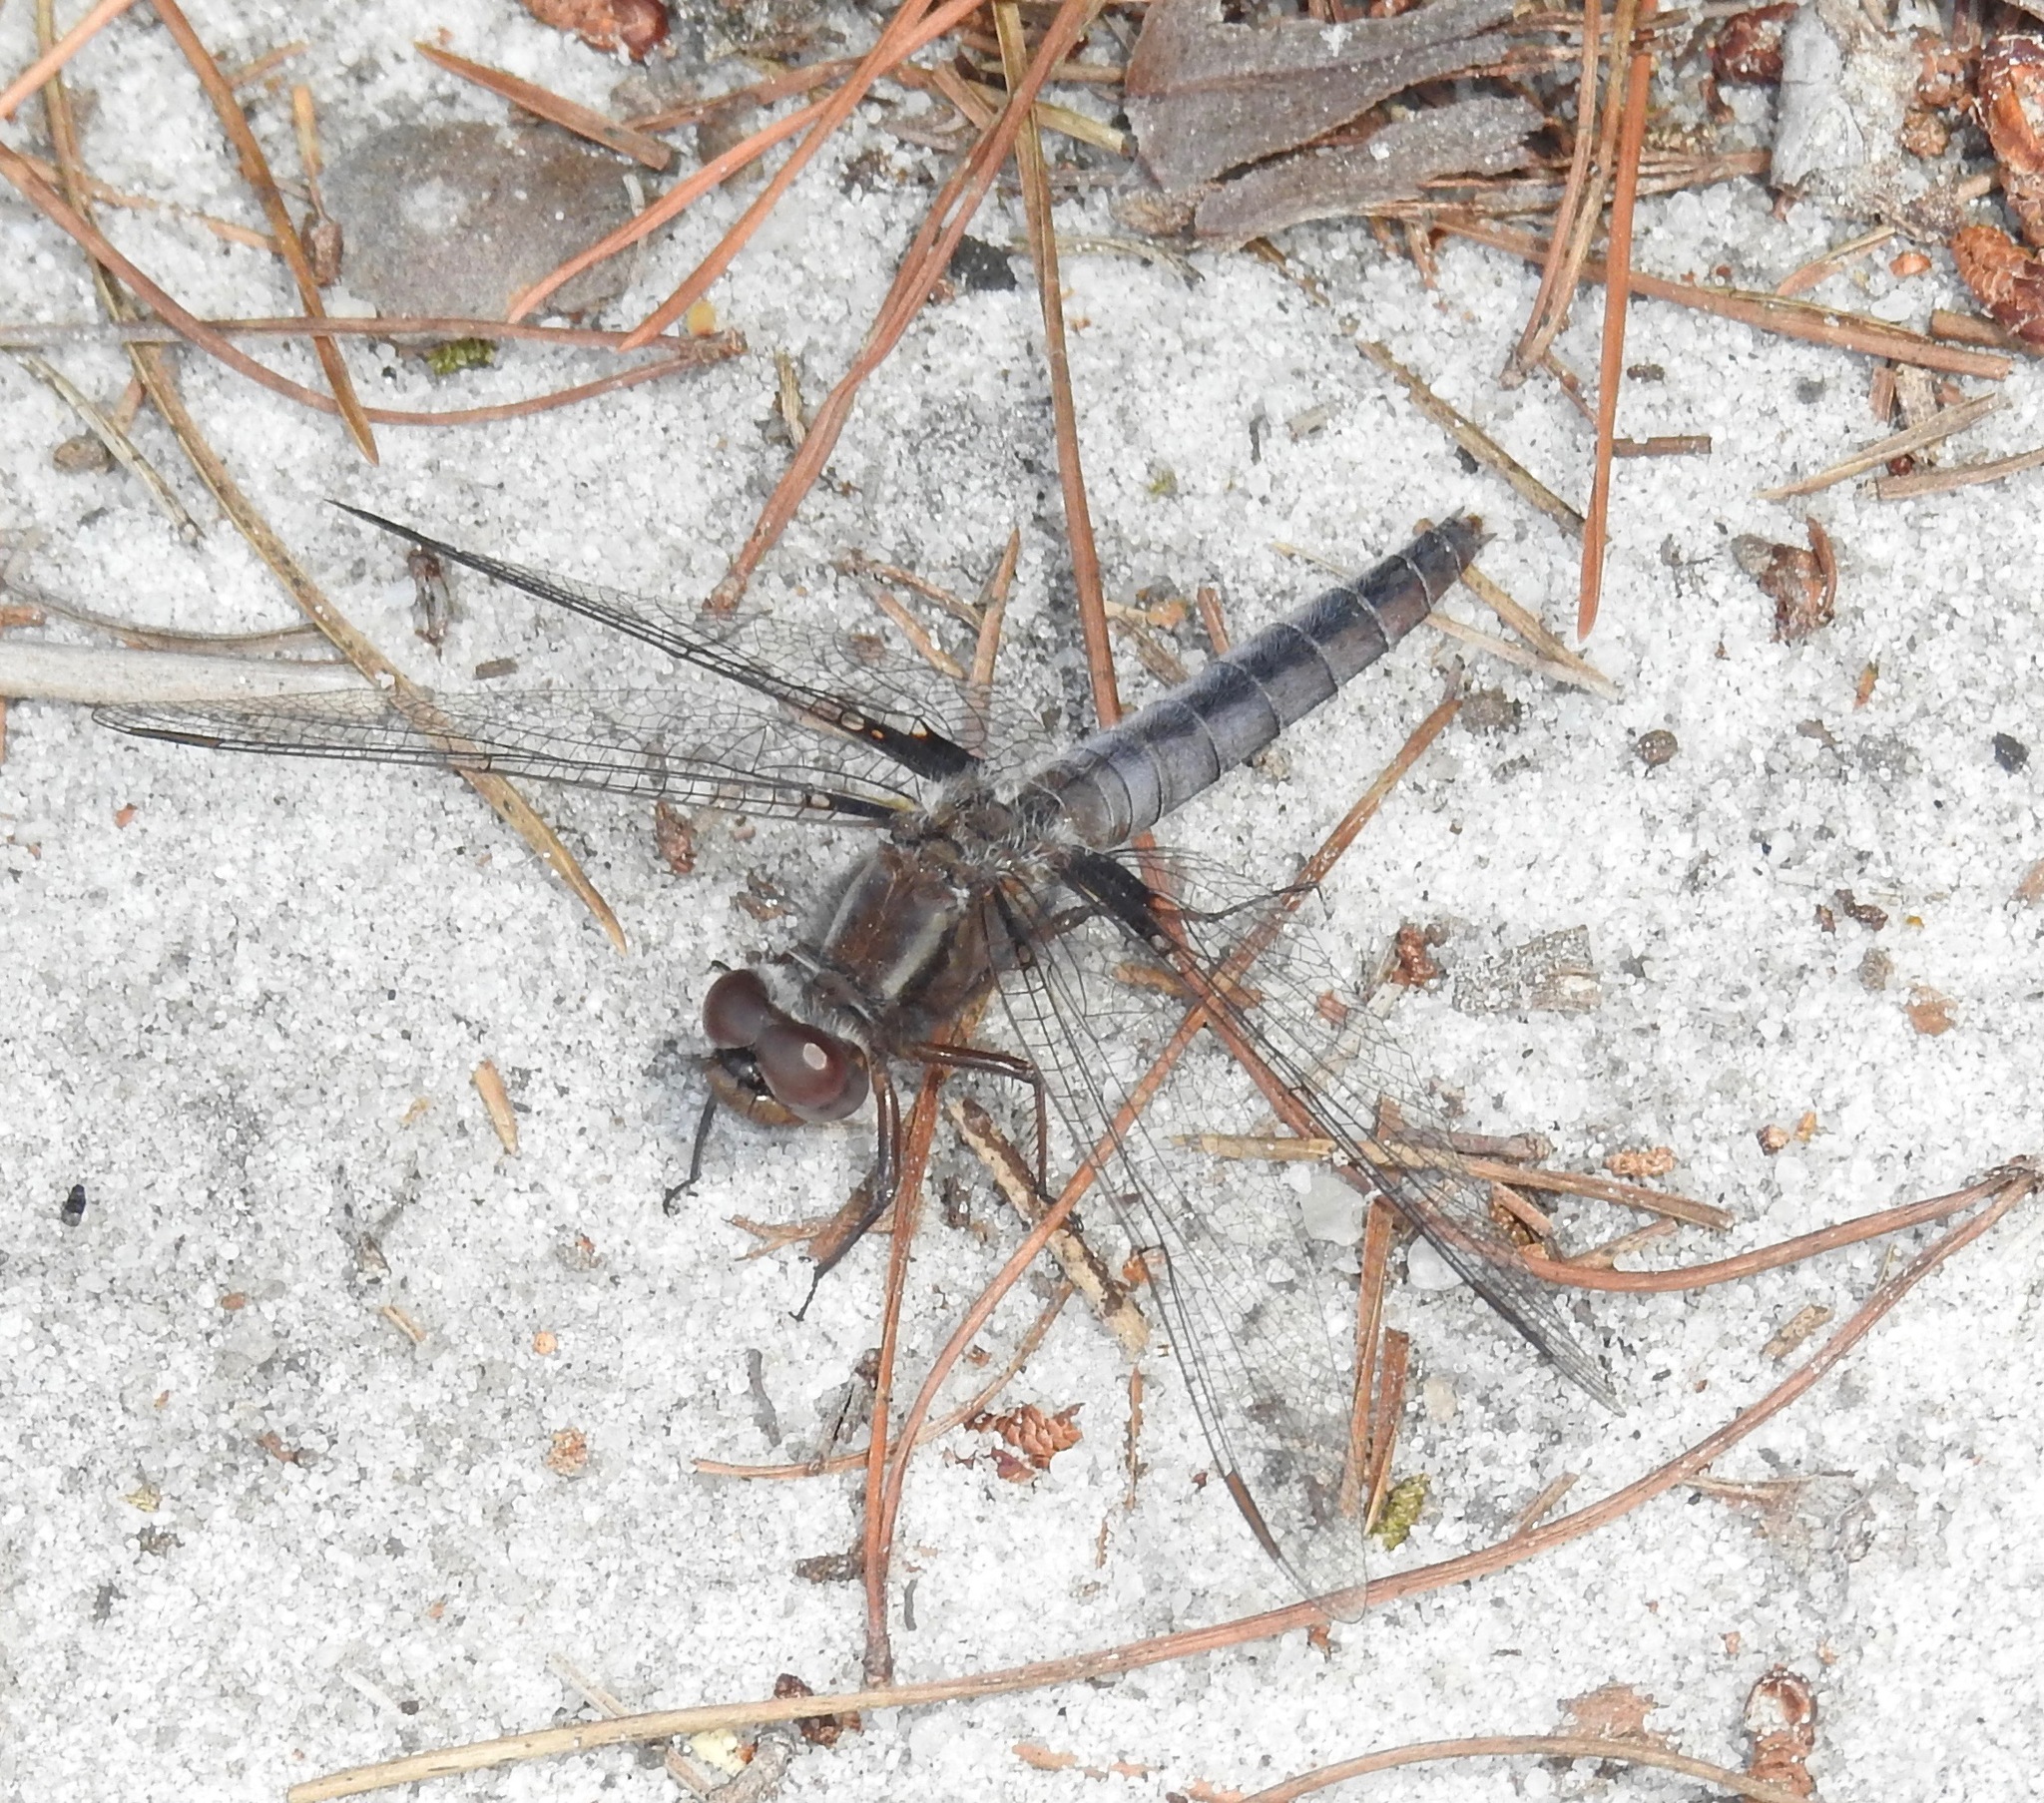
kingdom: Animalia
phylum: Arthropoda
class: Insecta
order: Odonata
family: Libellulidae
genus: Ladona
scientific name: Ladona deplanata
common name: Blue corporal
